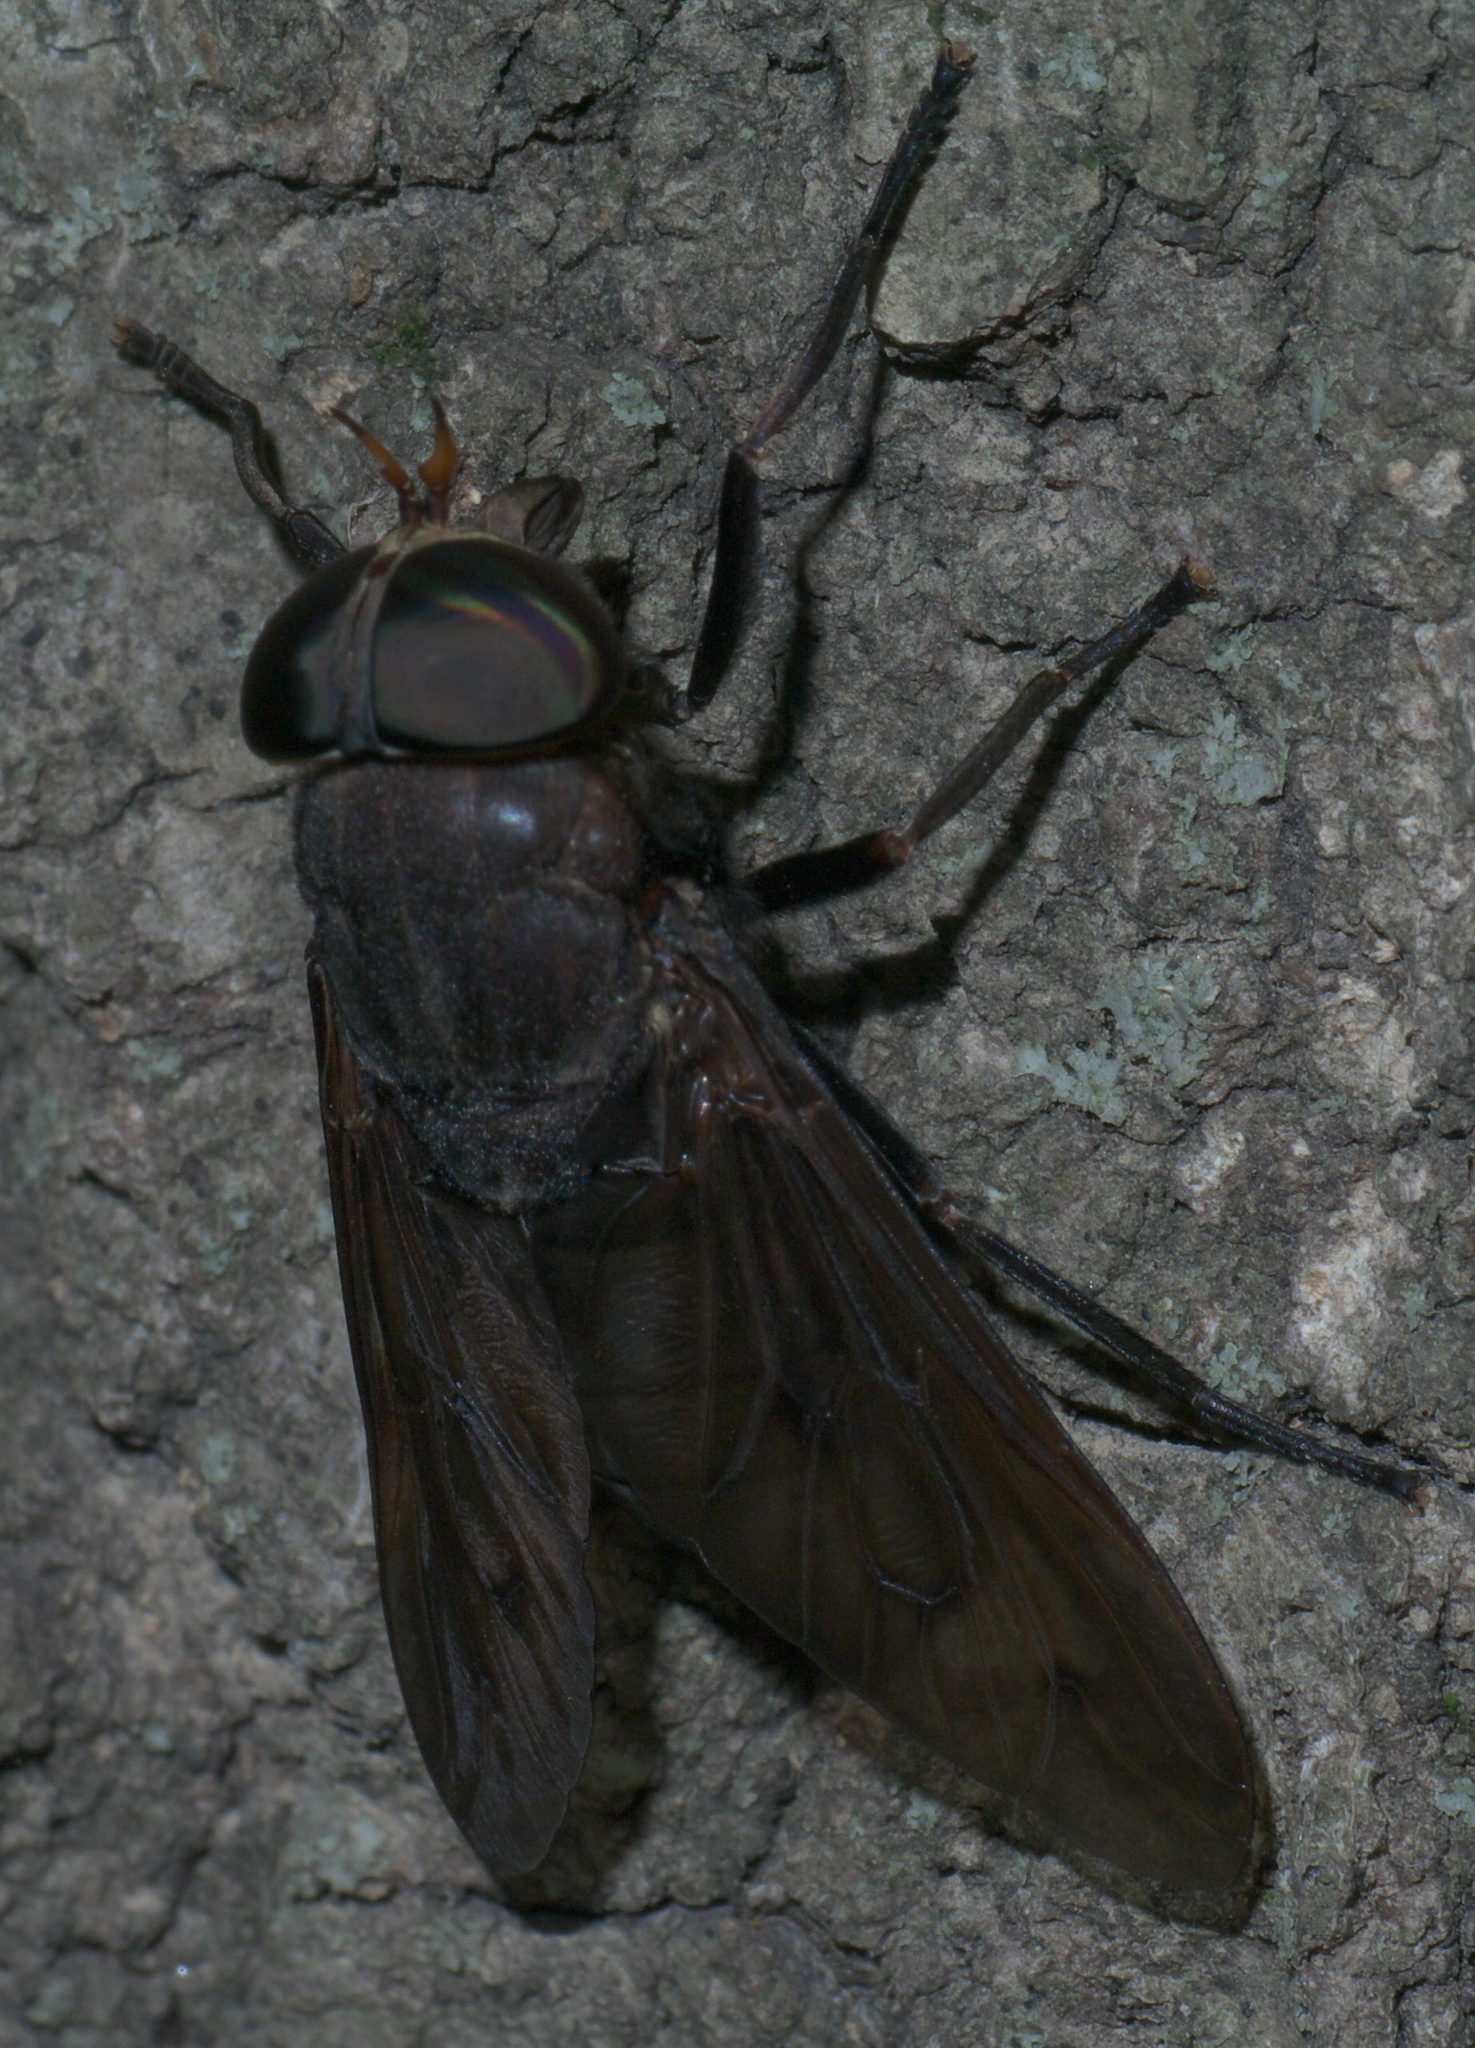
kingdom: Animalia
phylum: Arthropoda
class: Insecta
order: Diptera
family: Tabanidae
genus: Tabanus
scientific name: Tabanus proximus
